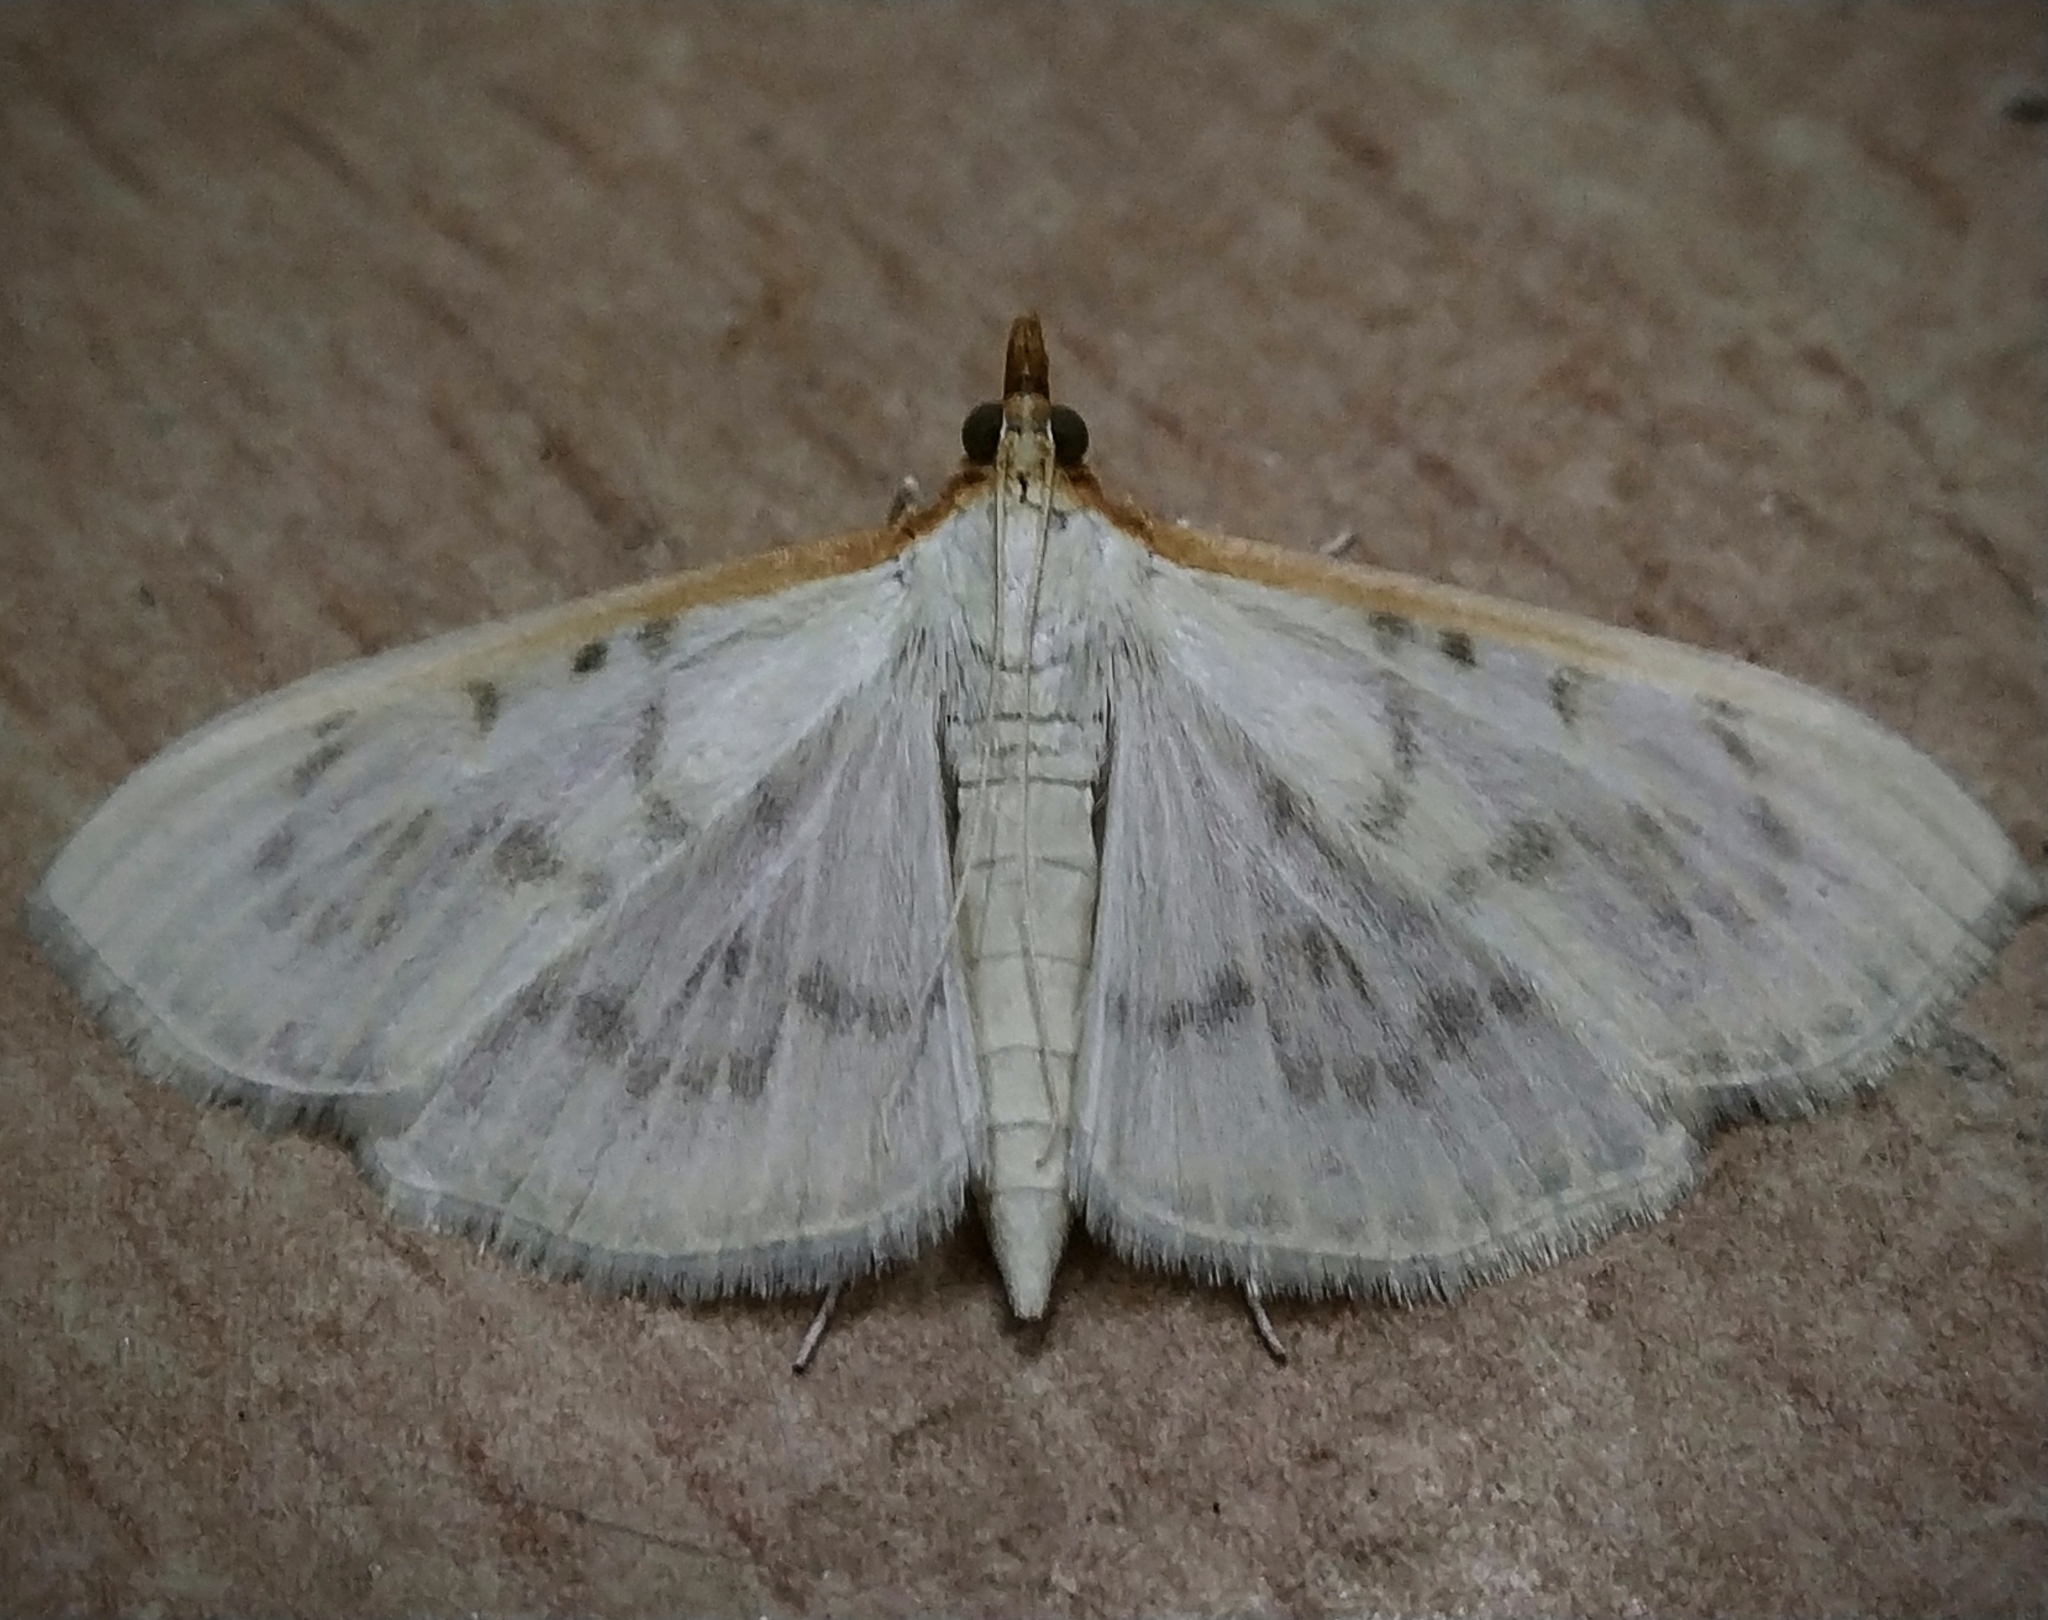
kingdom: Animalia
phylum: Arthropoda
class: Insecta
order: Lepidoptera
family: Crambidae
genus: Pyrausta
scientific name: Pyrausta testalis
